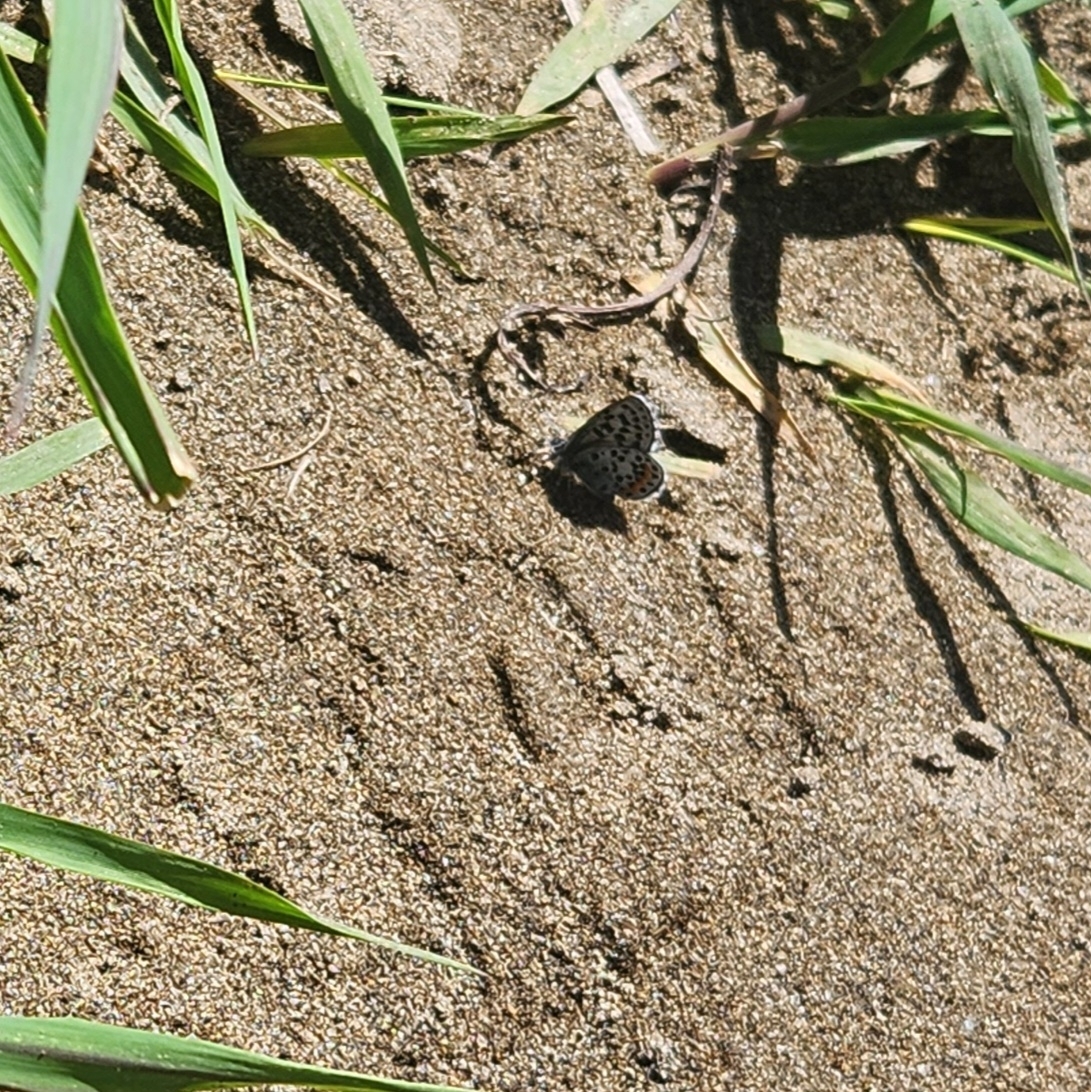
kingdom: Animalia
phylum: Arthropoda
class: Insecta
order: Lepidoptera
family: Lycaenidae
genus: Euphilotes
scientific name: Euphilotes
